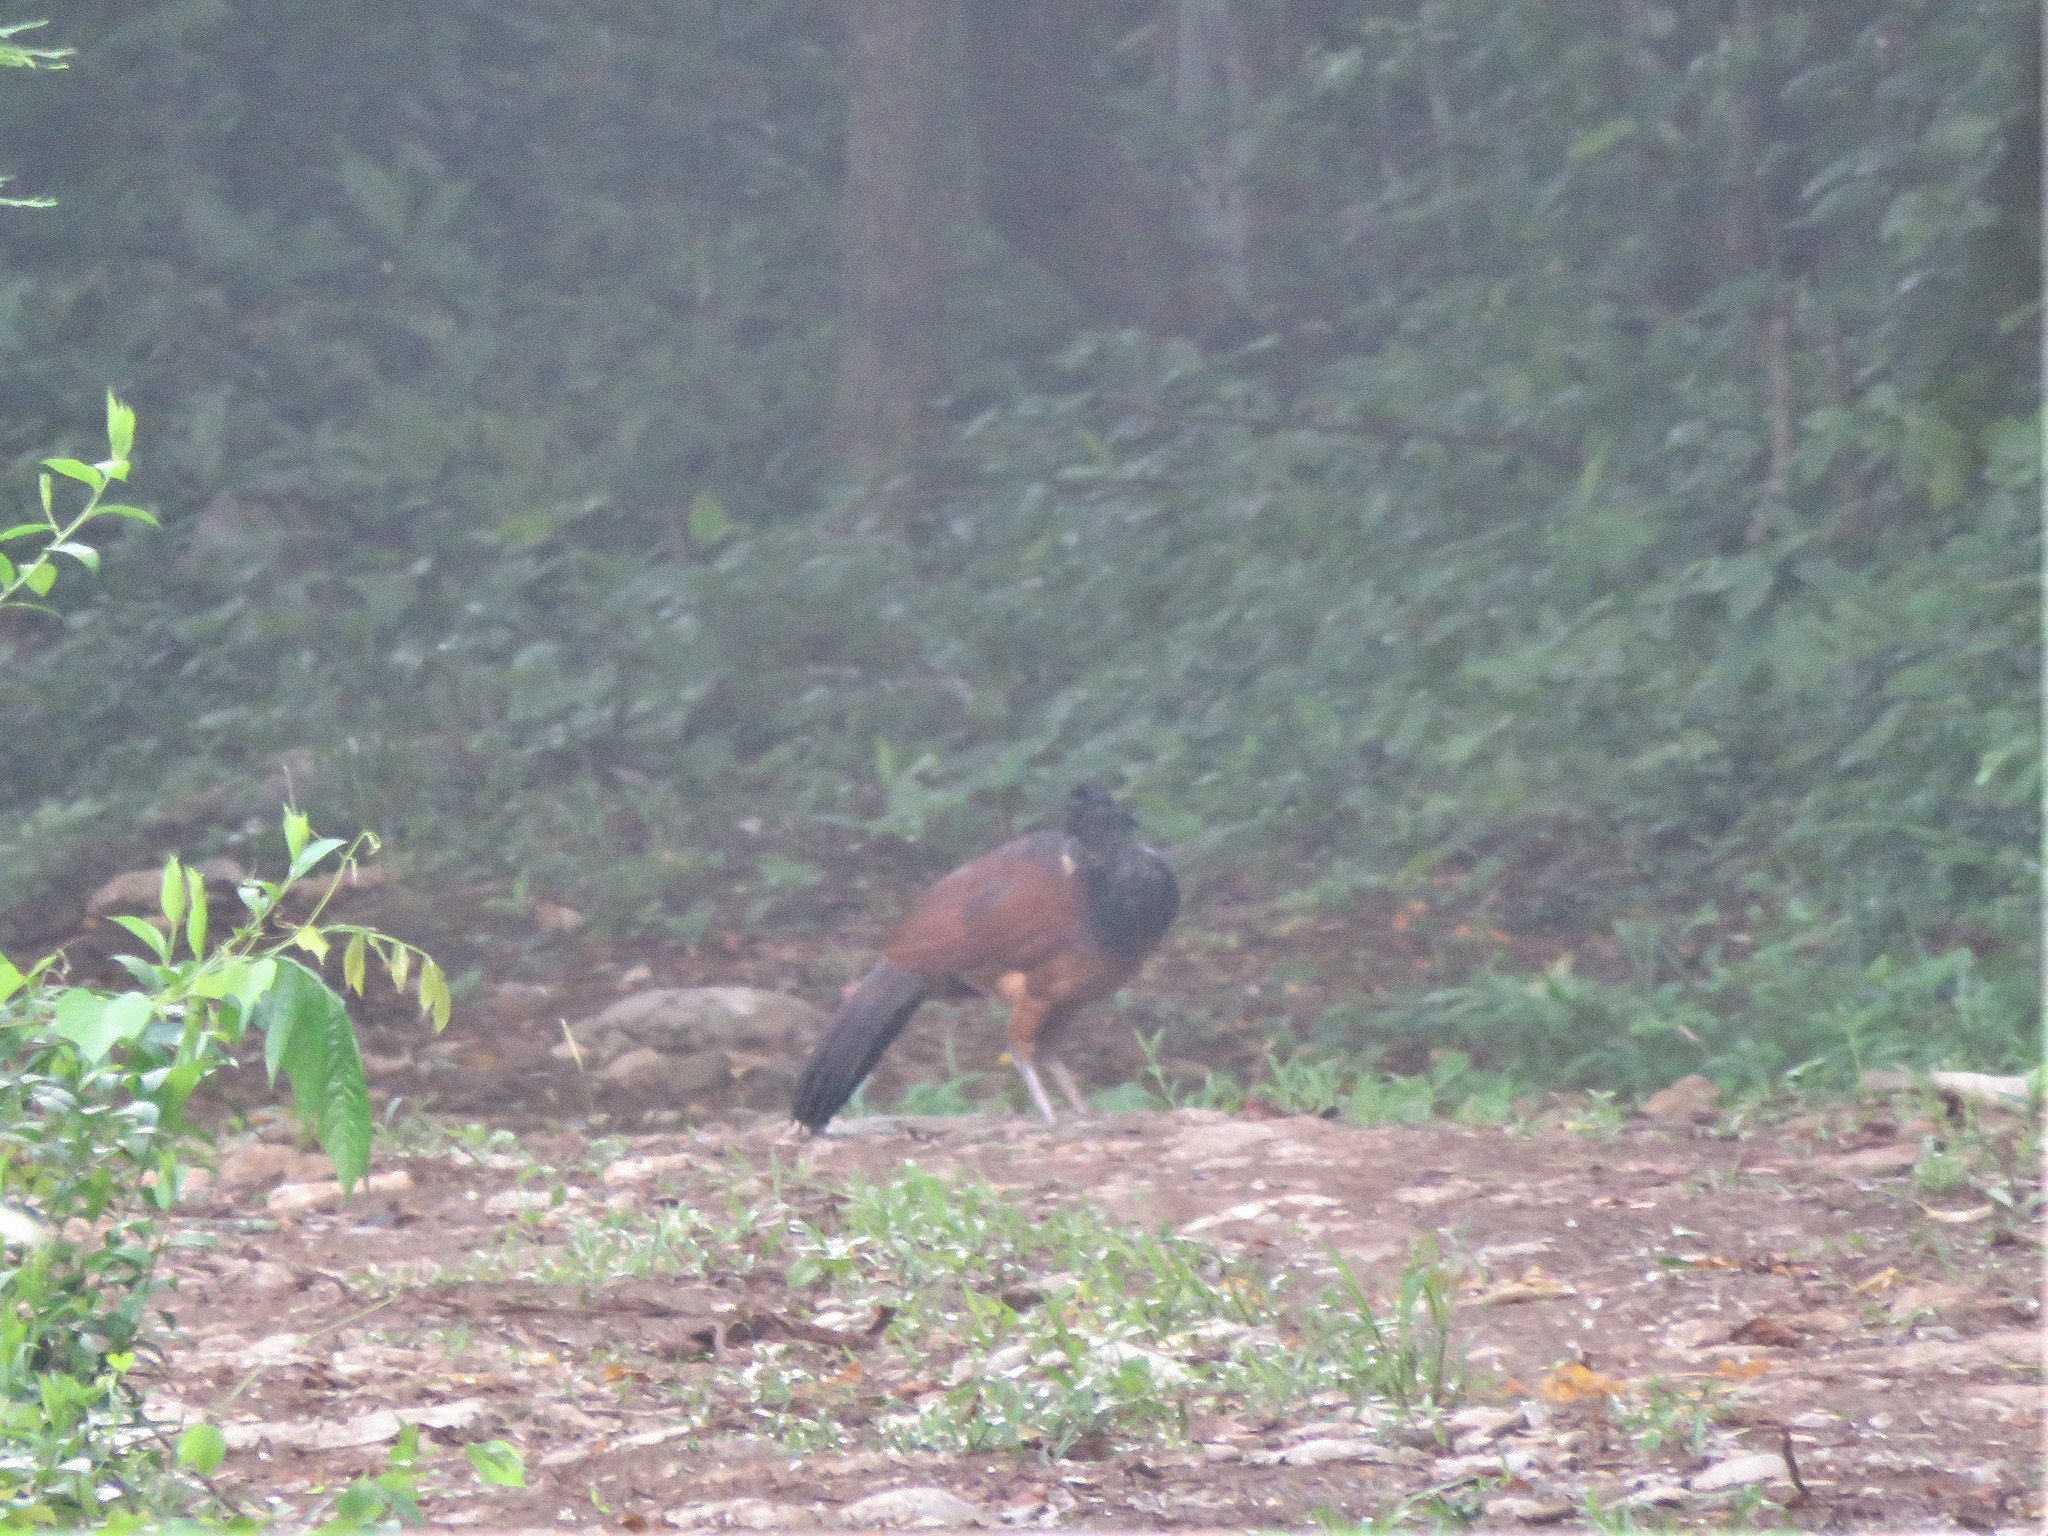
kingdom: Animalia
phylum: Chordata
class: Aves
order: Galliformes
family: Cracidae
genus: Crax
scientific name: Crax rubra
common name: Great curassow
